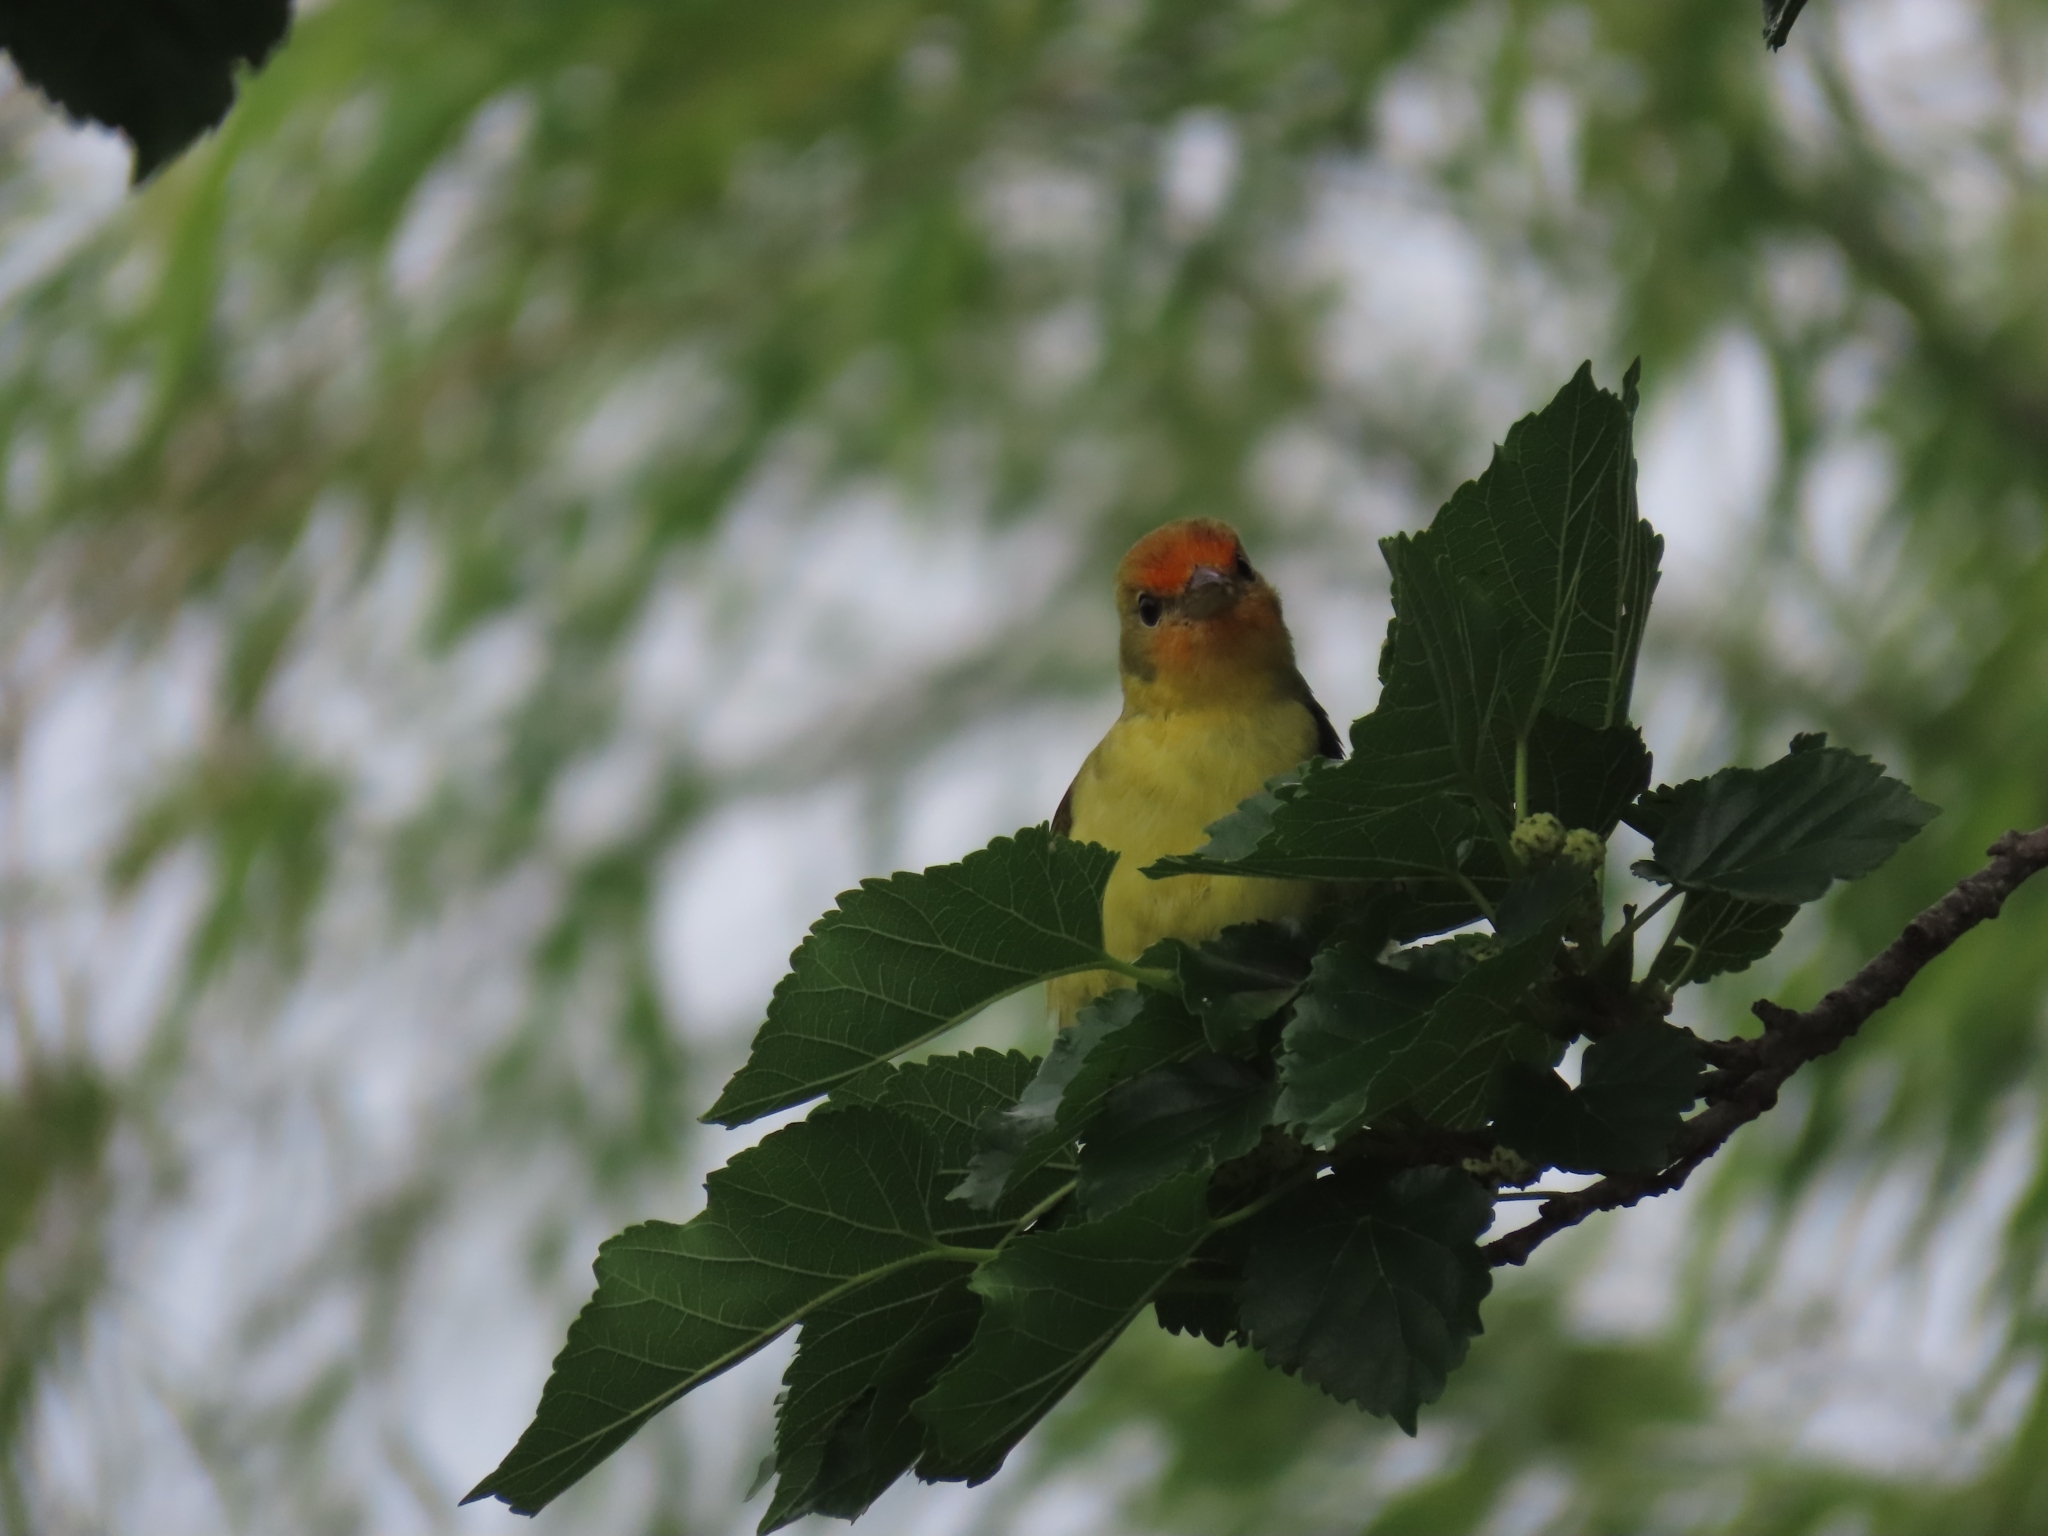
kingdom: Animalia
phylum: Chordata
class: Aves
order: Passeriformes
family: Cardinalidae
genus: Piranga
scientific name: Piranga ludoviciana
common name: Western tanager
